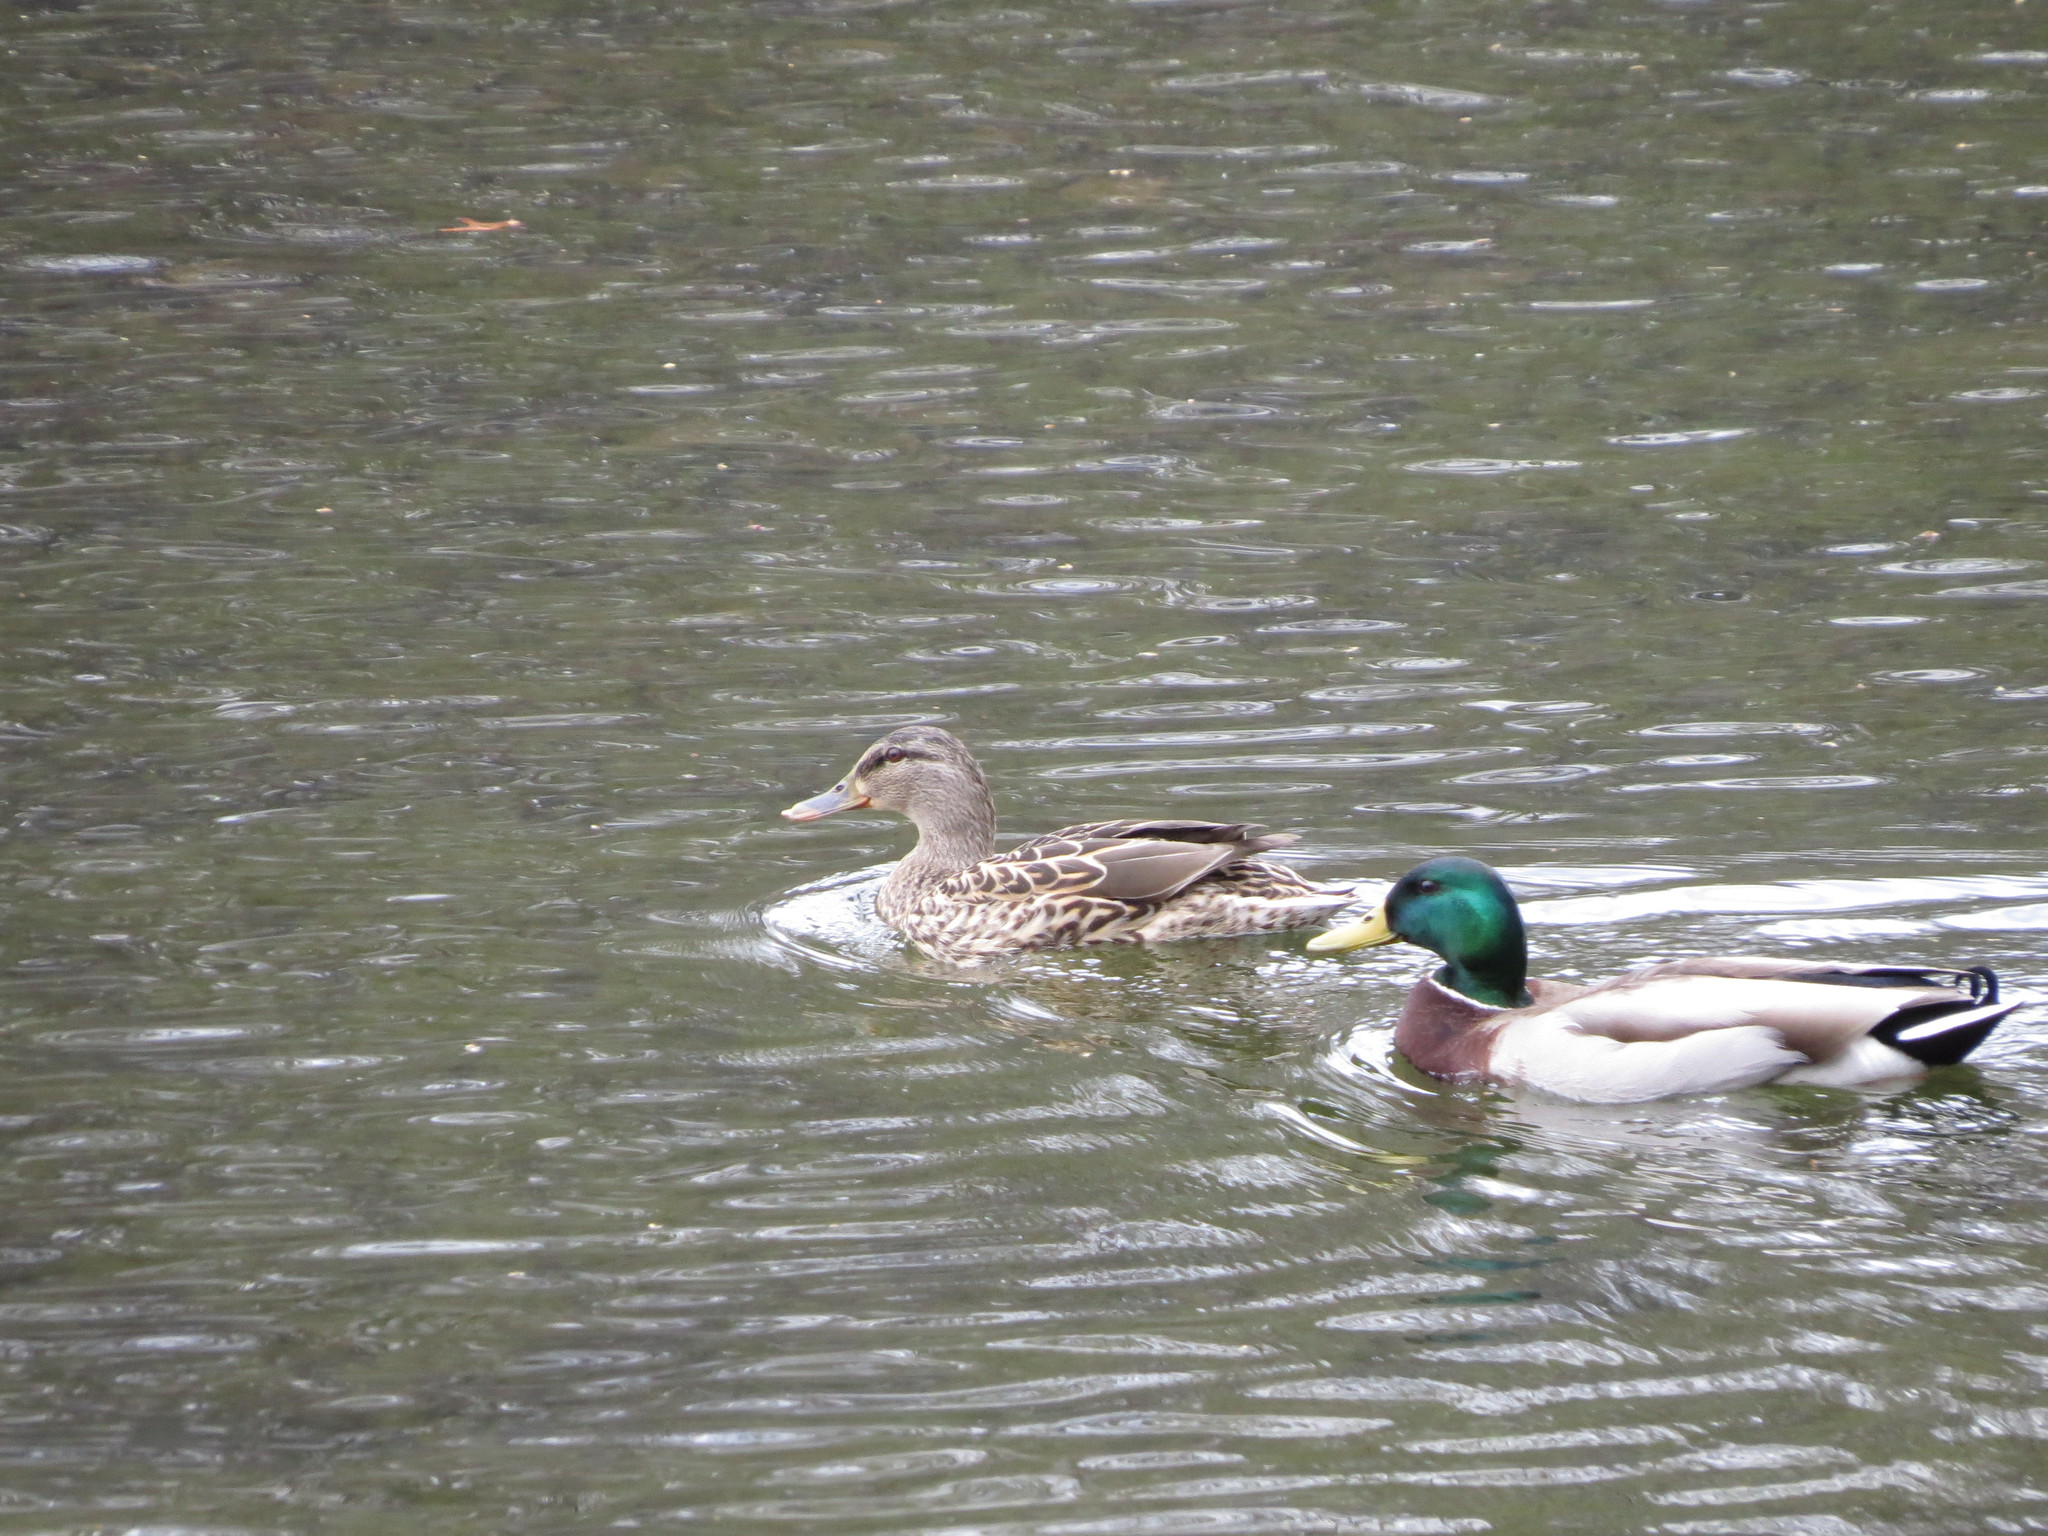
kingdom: Animalia
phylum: Chordata
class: Aves
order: Anseriformes
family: Anatidae
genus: Anas
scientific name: Anas platyrhynchos
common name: Mallard
